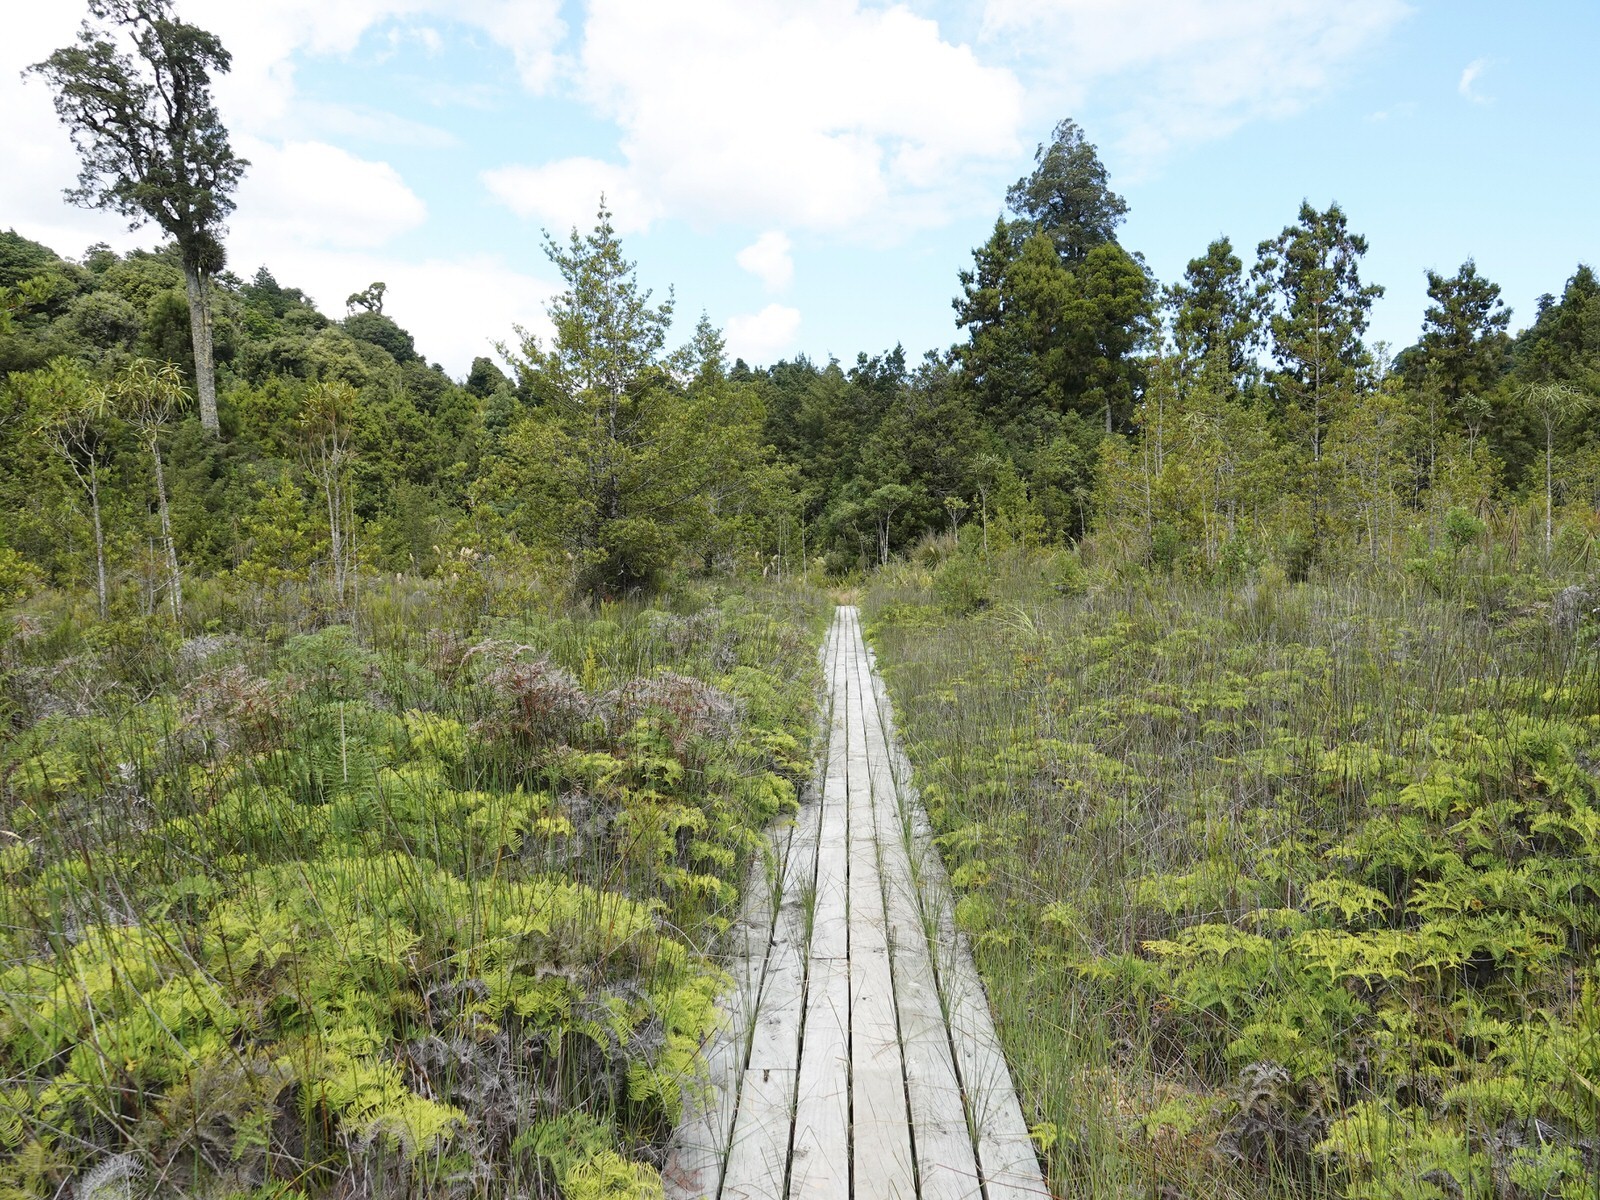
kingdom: Plantae
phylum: Tracheophyta
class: Magnoliopsida
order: Saxifragales
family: Haloragaceae
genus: Gonocarpus
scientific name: Gonocarpus micranthus
